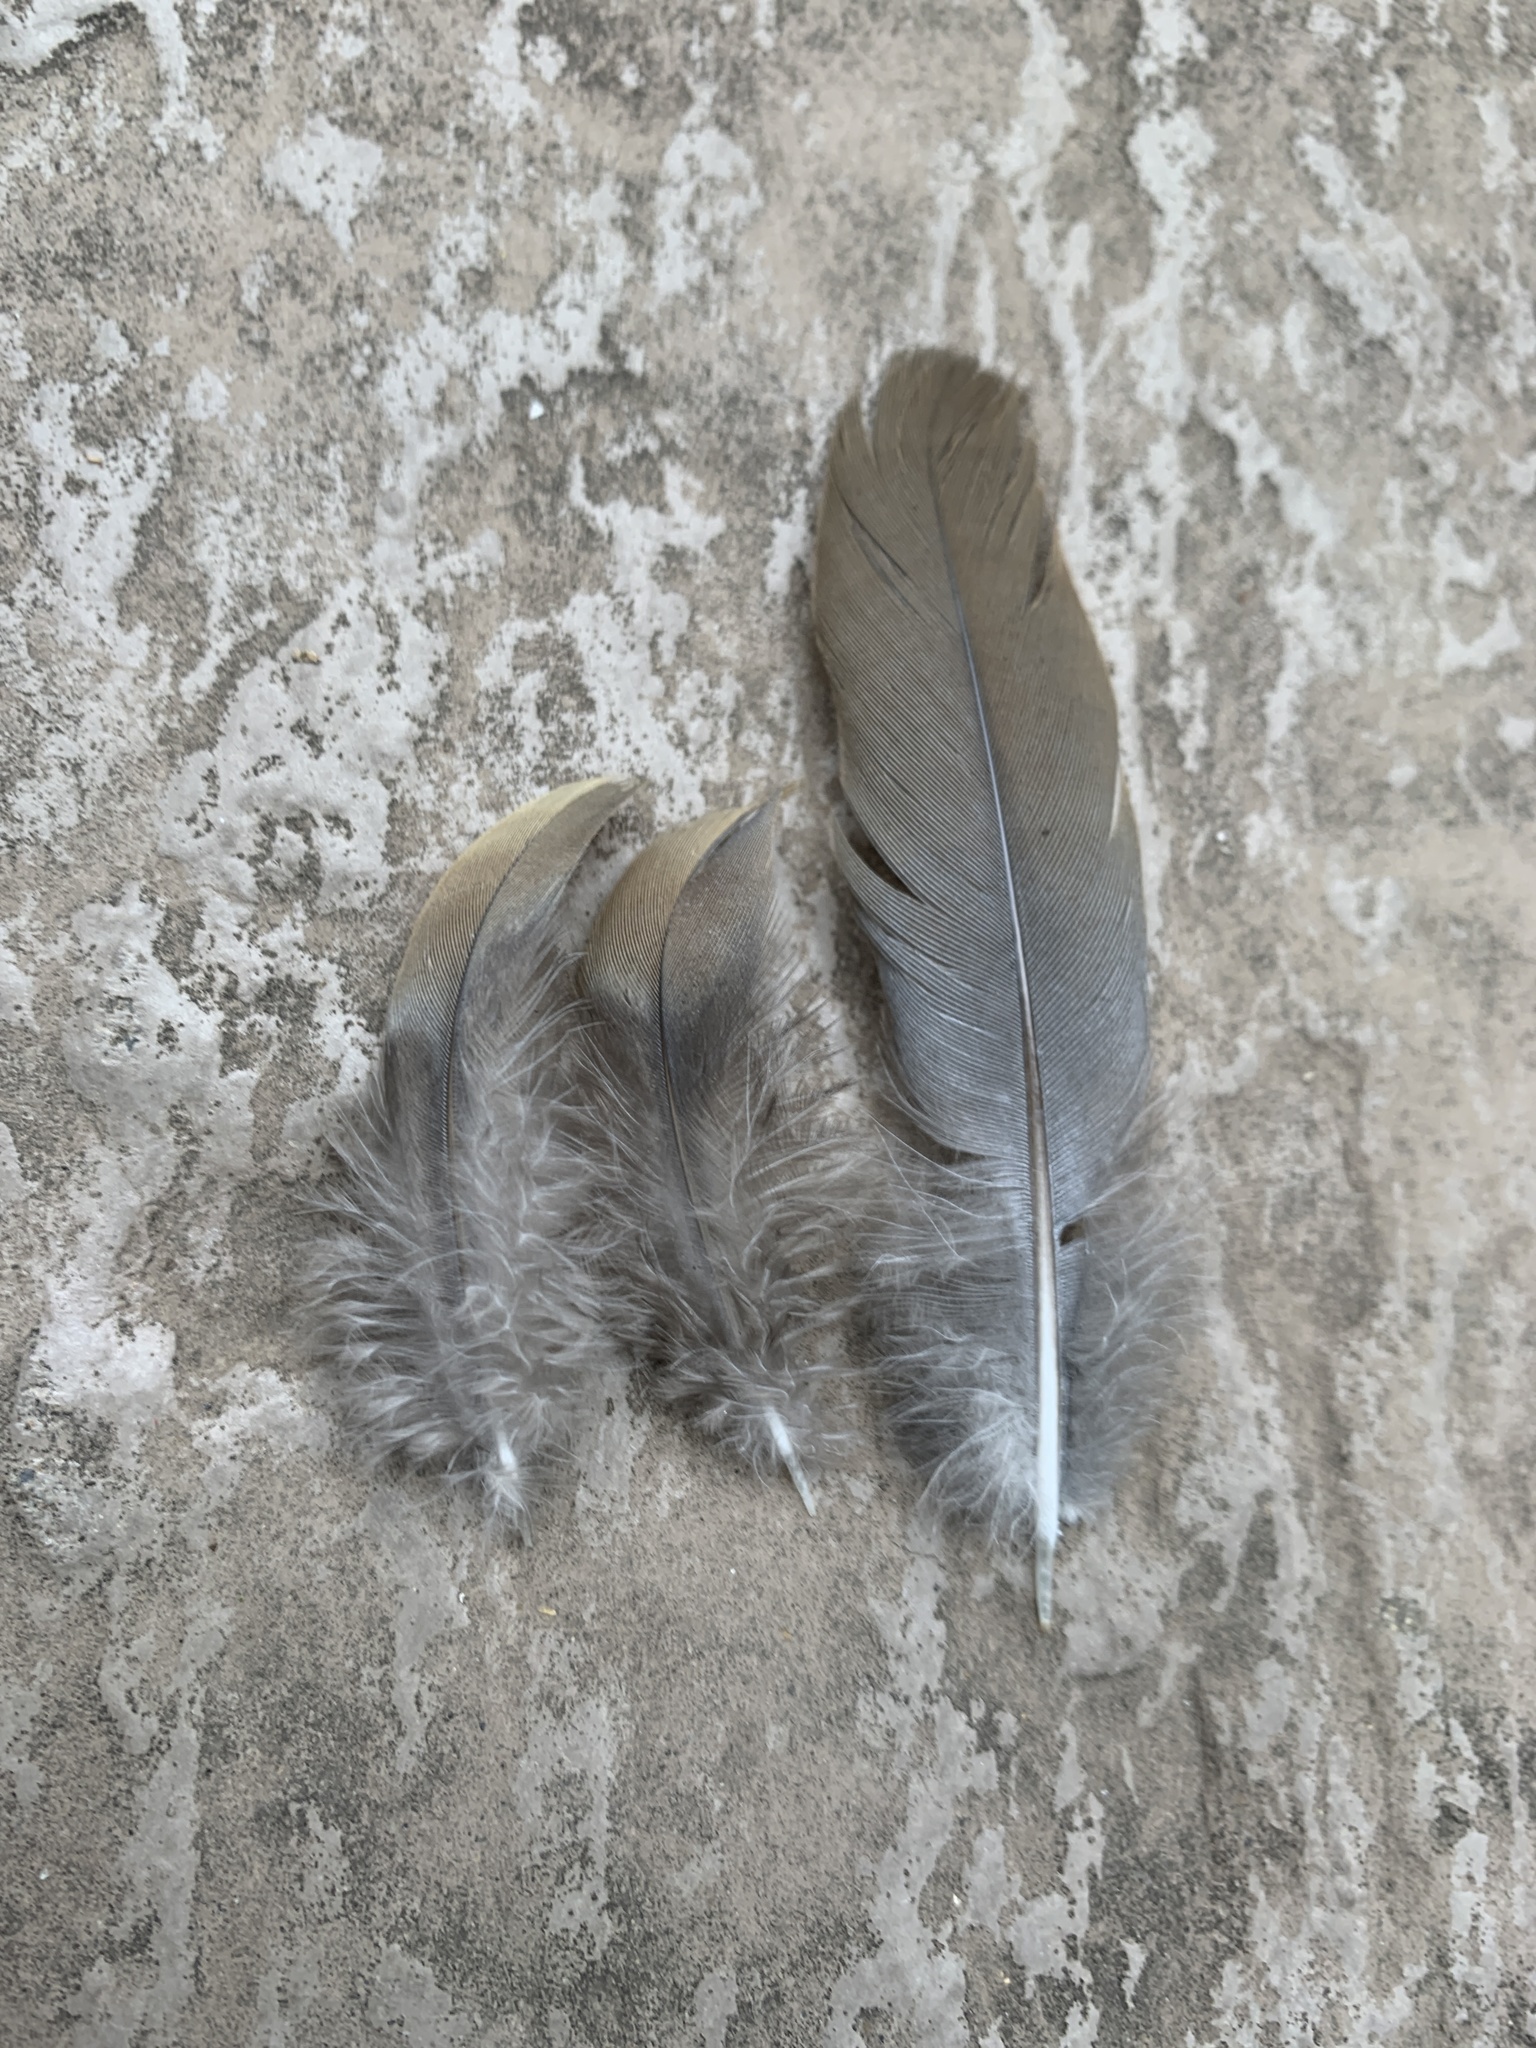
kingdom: Animalia
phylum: Chordata
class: Aves
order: Columbiformes
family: Columbidae
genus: Zenaida
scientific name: Zenaida macroura
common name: Mourning dove
